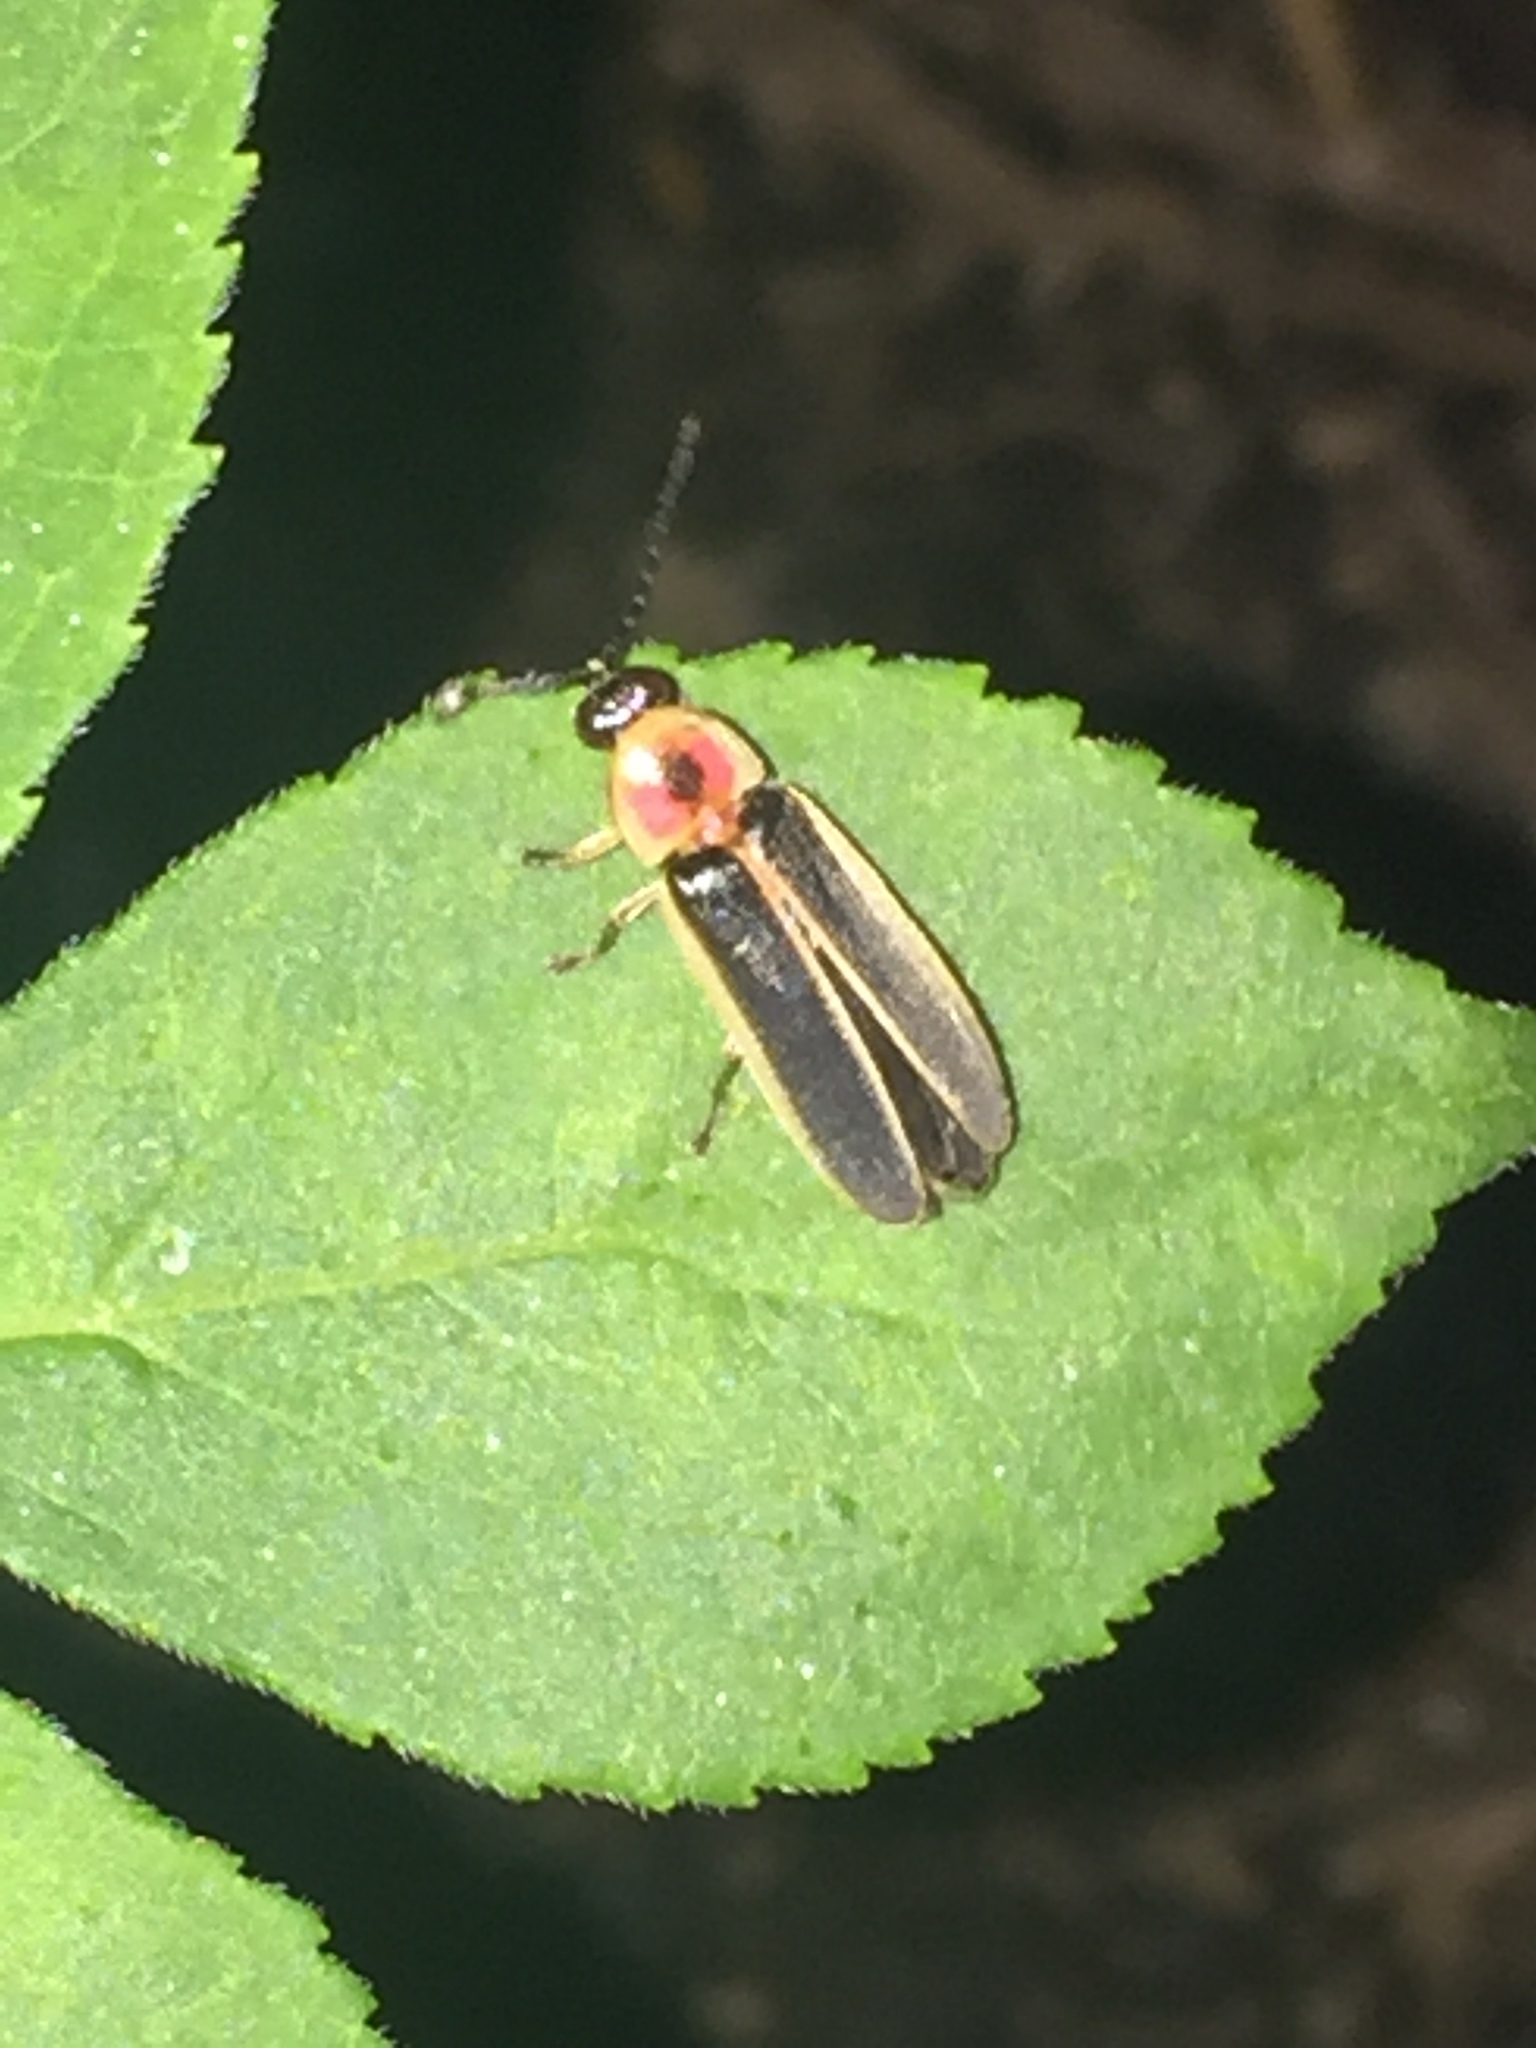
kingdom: Animalia
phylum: Arthropoda
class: Insecta
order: Coleoptera
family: Lampyridae
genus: Photinus
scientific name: Photinus pyralis
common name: Big dipper firefly
